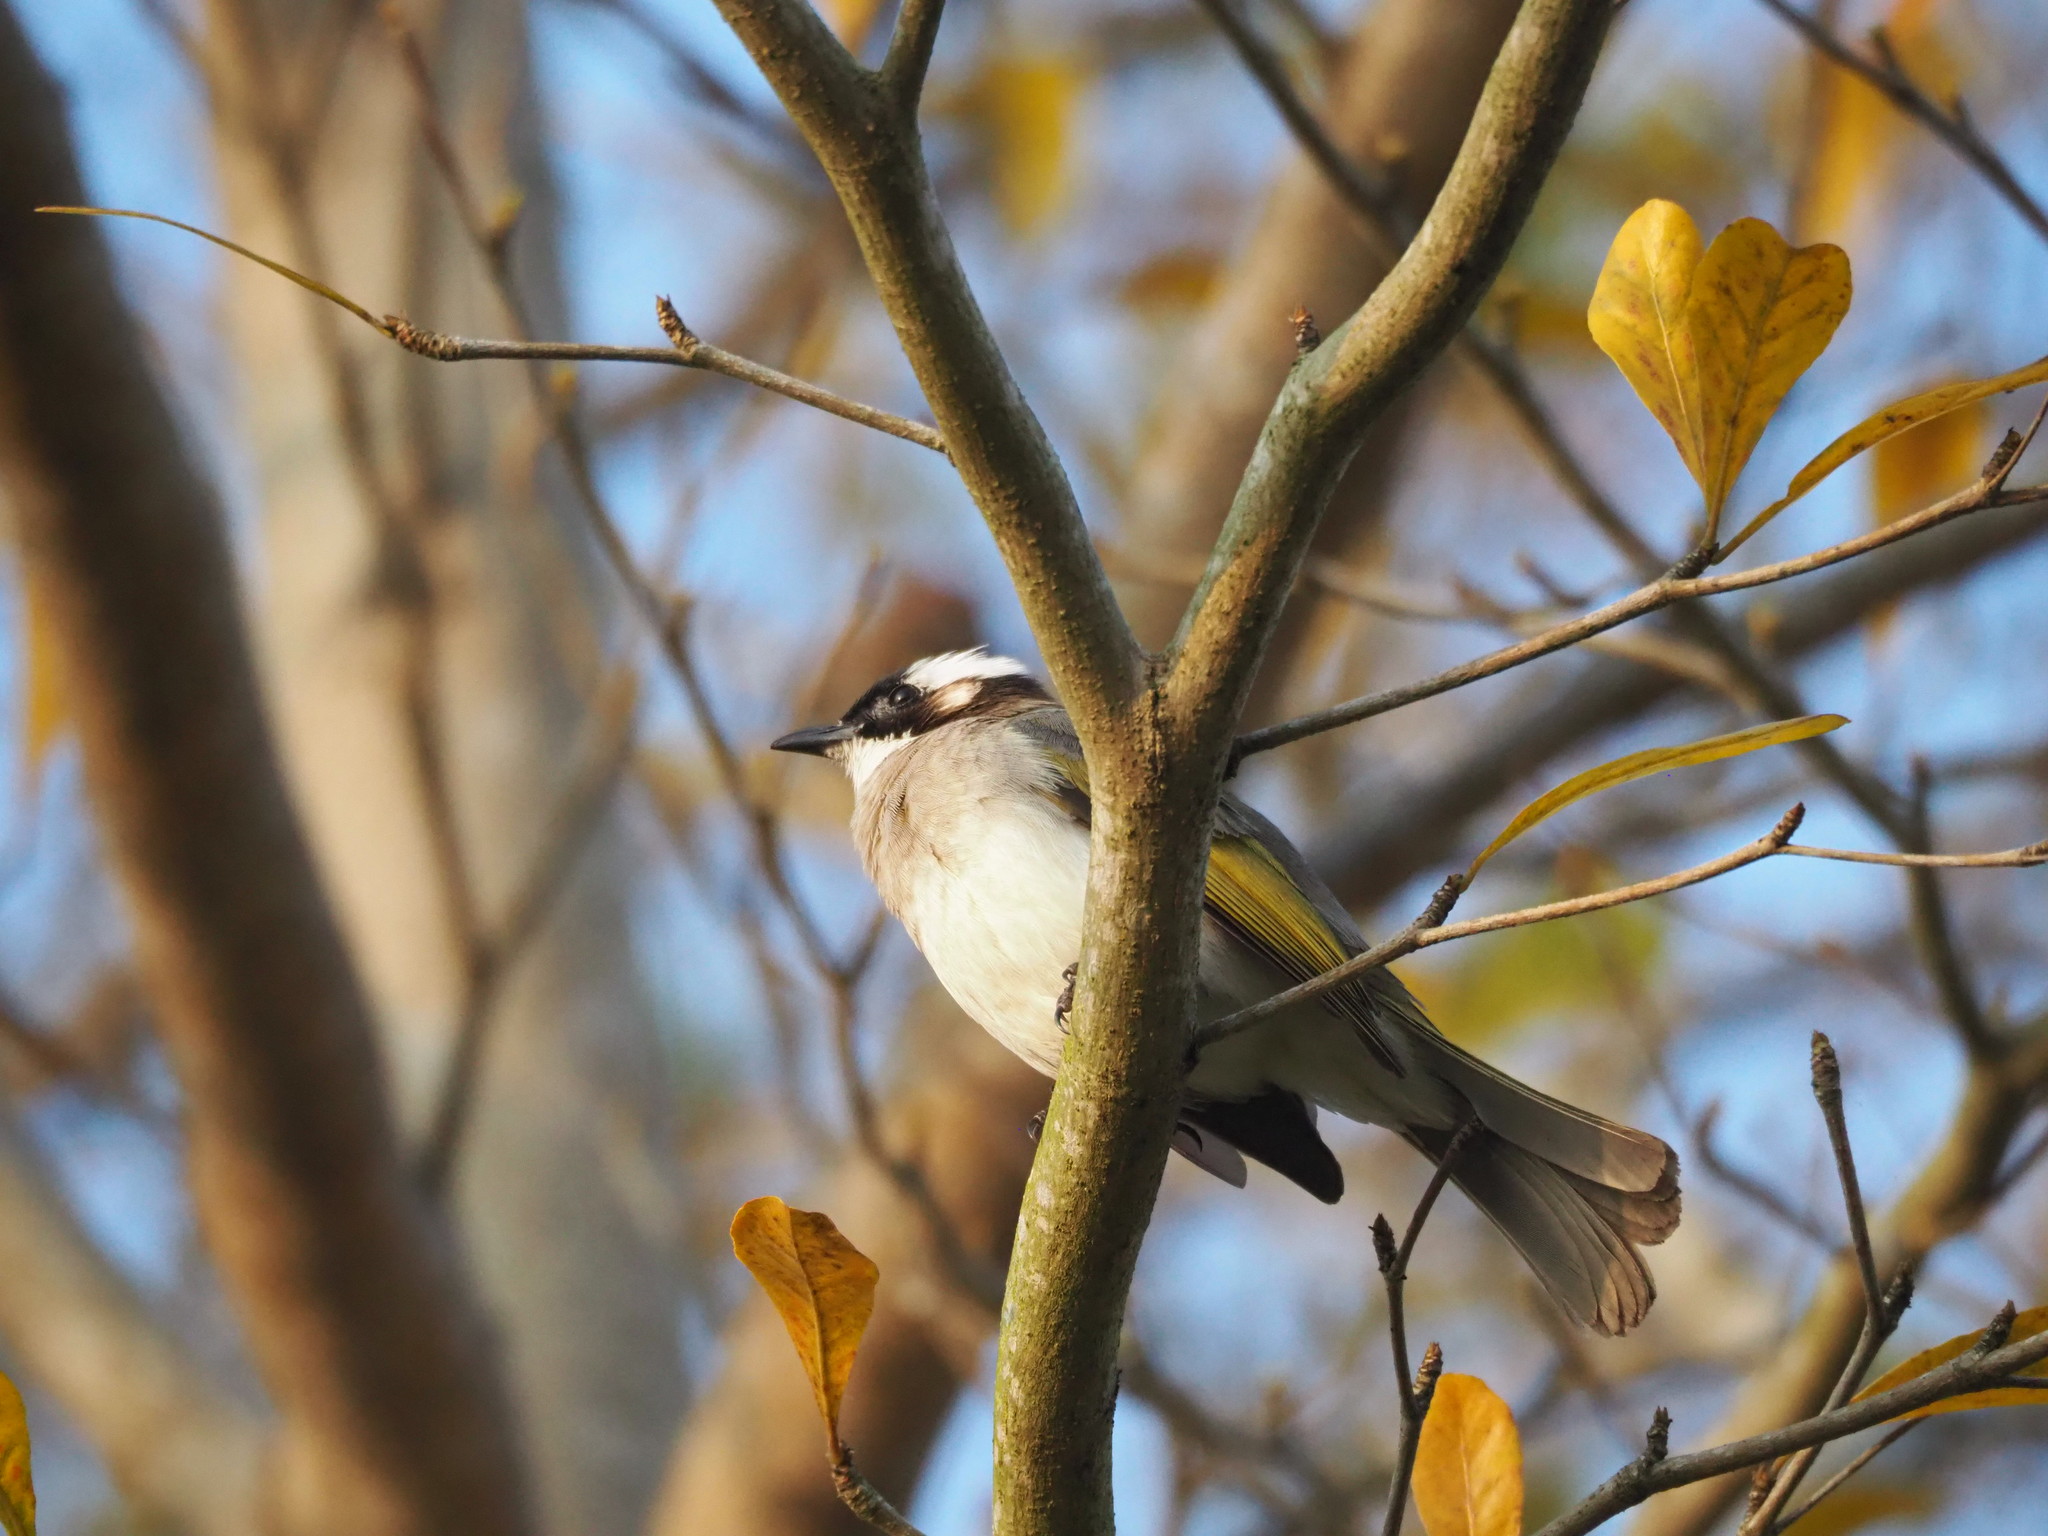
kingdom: Animalia
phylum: Chordata
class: Aves
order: Passeriformes
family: Pycnonotidae
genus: Pycnonotus
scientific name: Pycnonotus sinensis
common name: Light-vented bulbul
